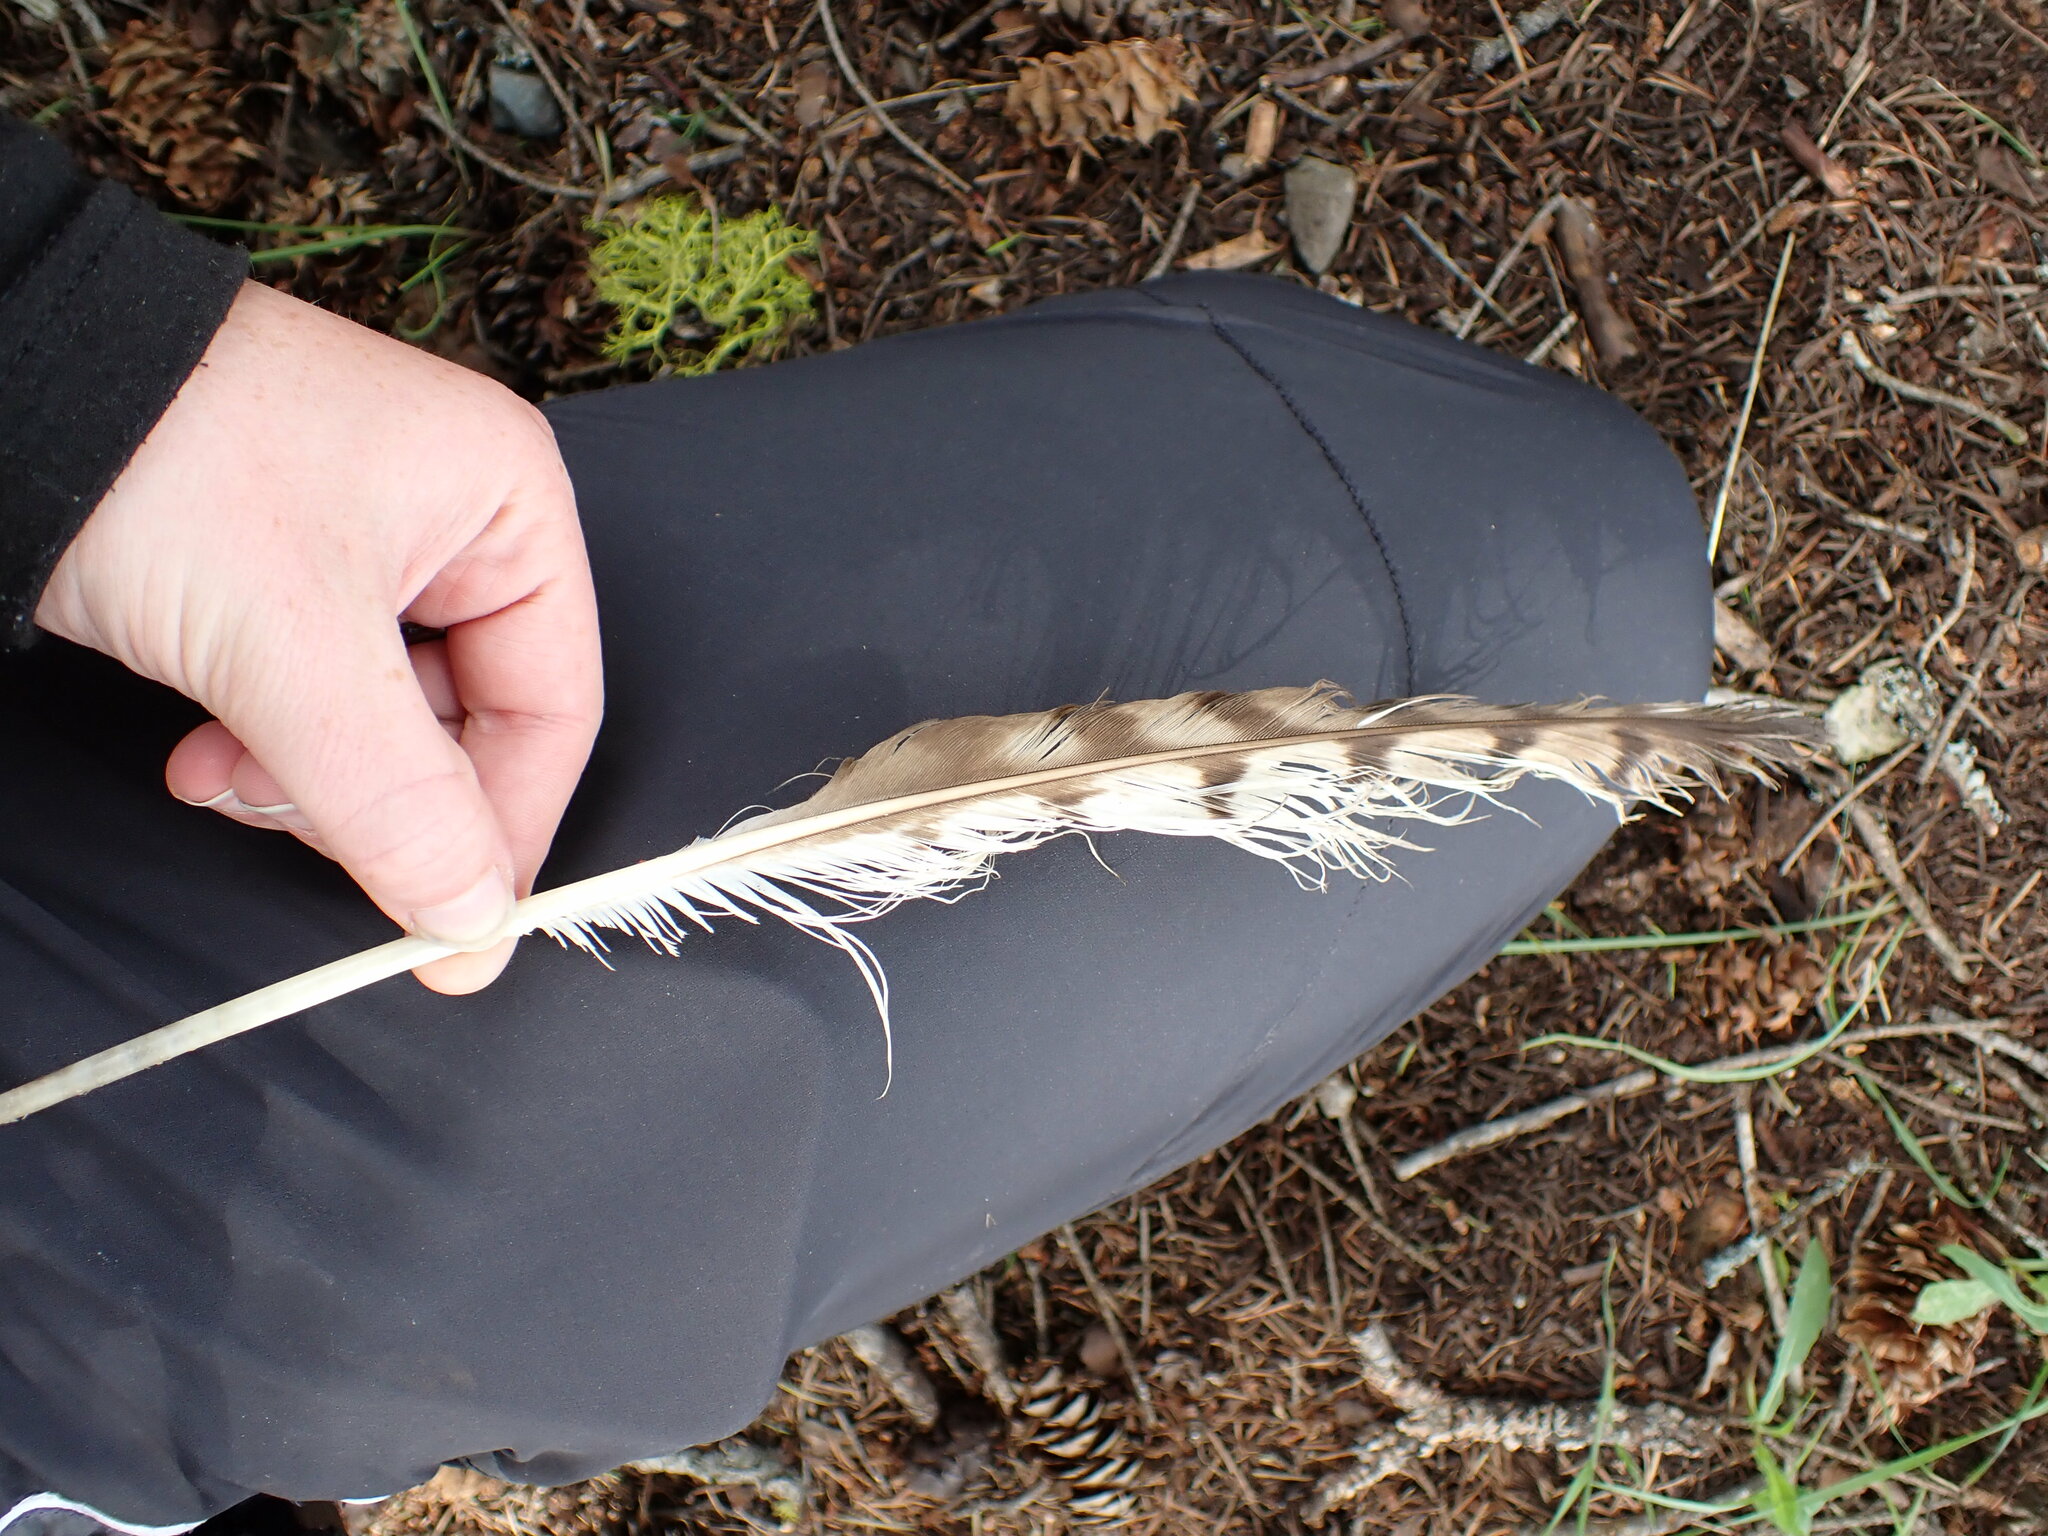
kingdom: Animalia
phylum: Chordata
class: Aves
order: Accipitriformes
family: Accipitridae
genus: Buteo
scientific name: Buteo jamaicensis
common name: Red-tailed hawk
